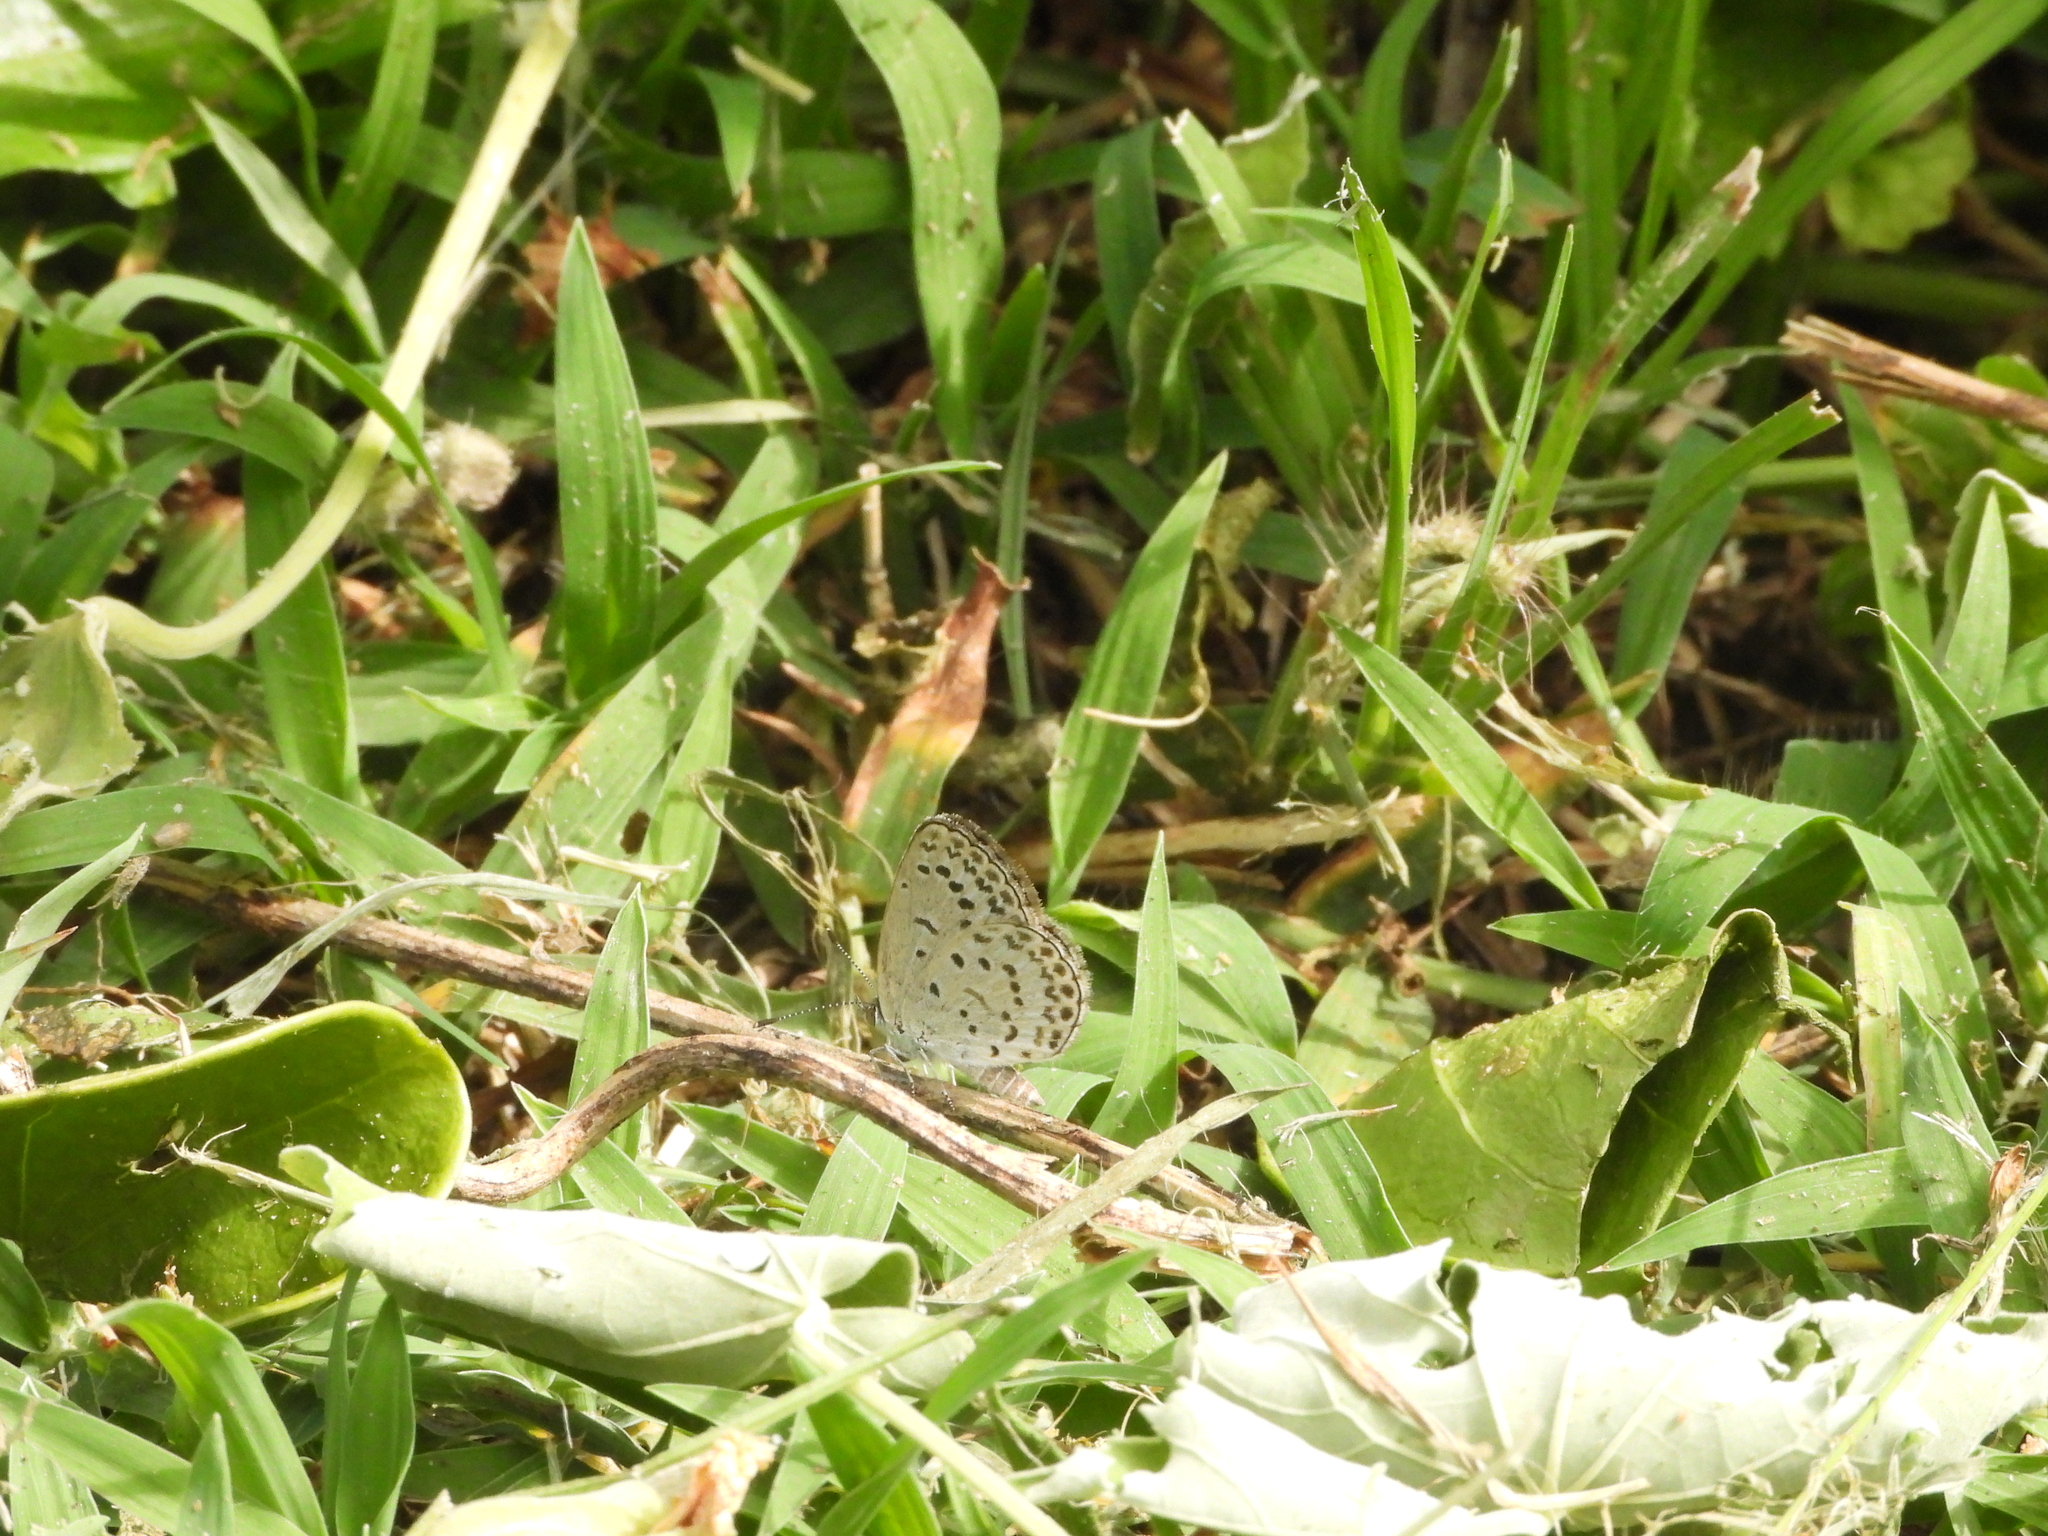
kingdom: Animalia
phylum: Arthropoda
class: Insecta
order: Lepidoptera
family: Lycaenidae
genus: Pseudozizeeria
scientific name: Pseudozizeeria maha
